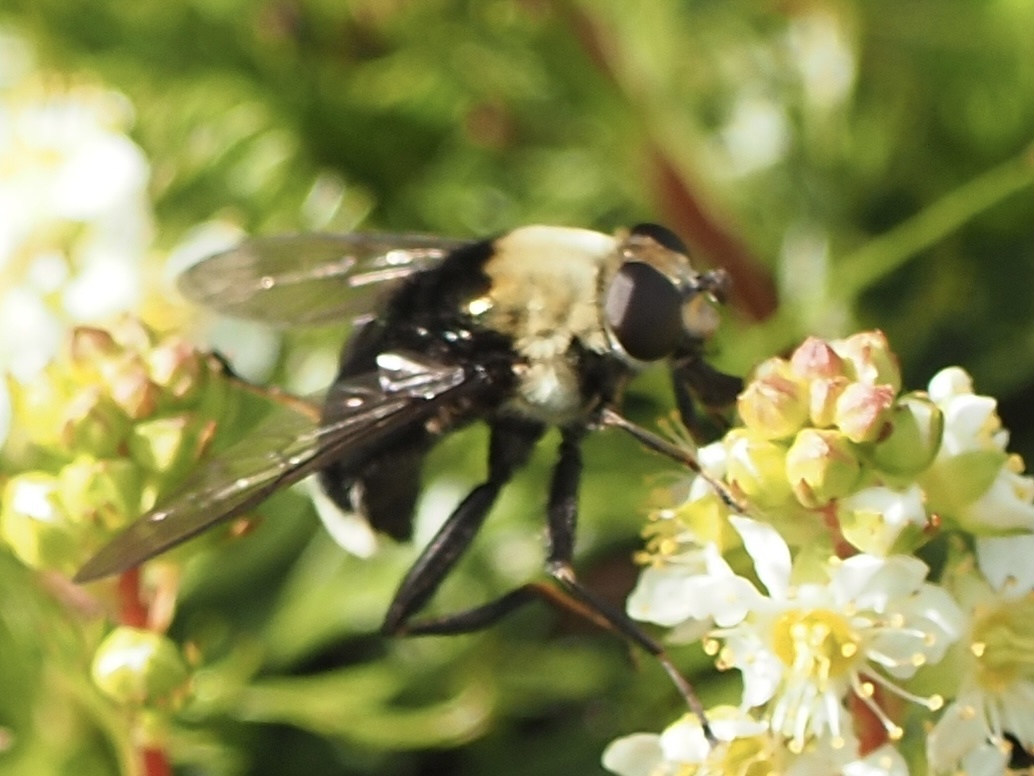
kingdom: Animalia
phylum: Arthropoda
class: Insecta
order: Diptera
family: Syrphidae
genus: Hadromyia
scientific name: Hadromyia grandis
